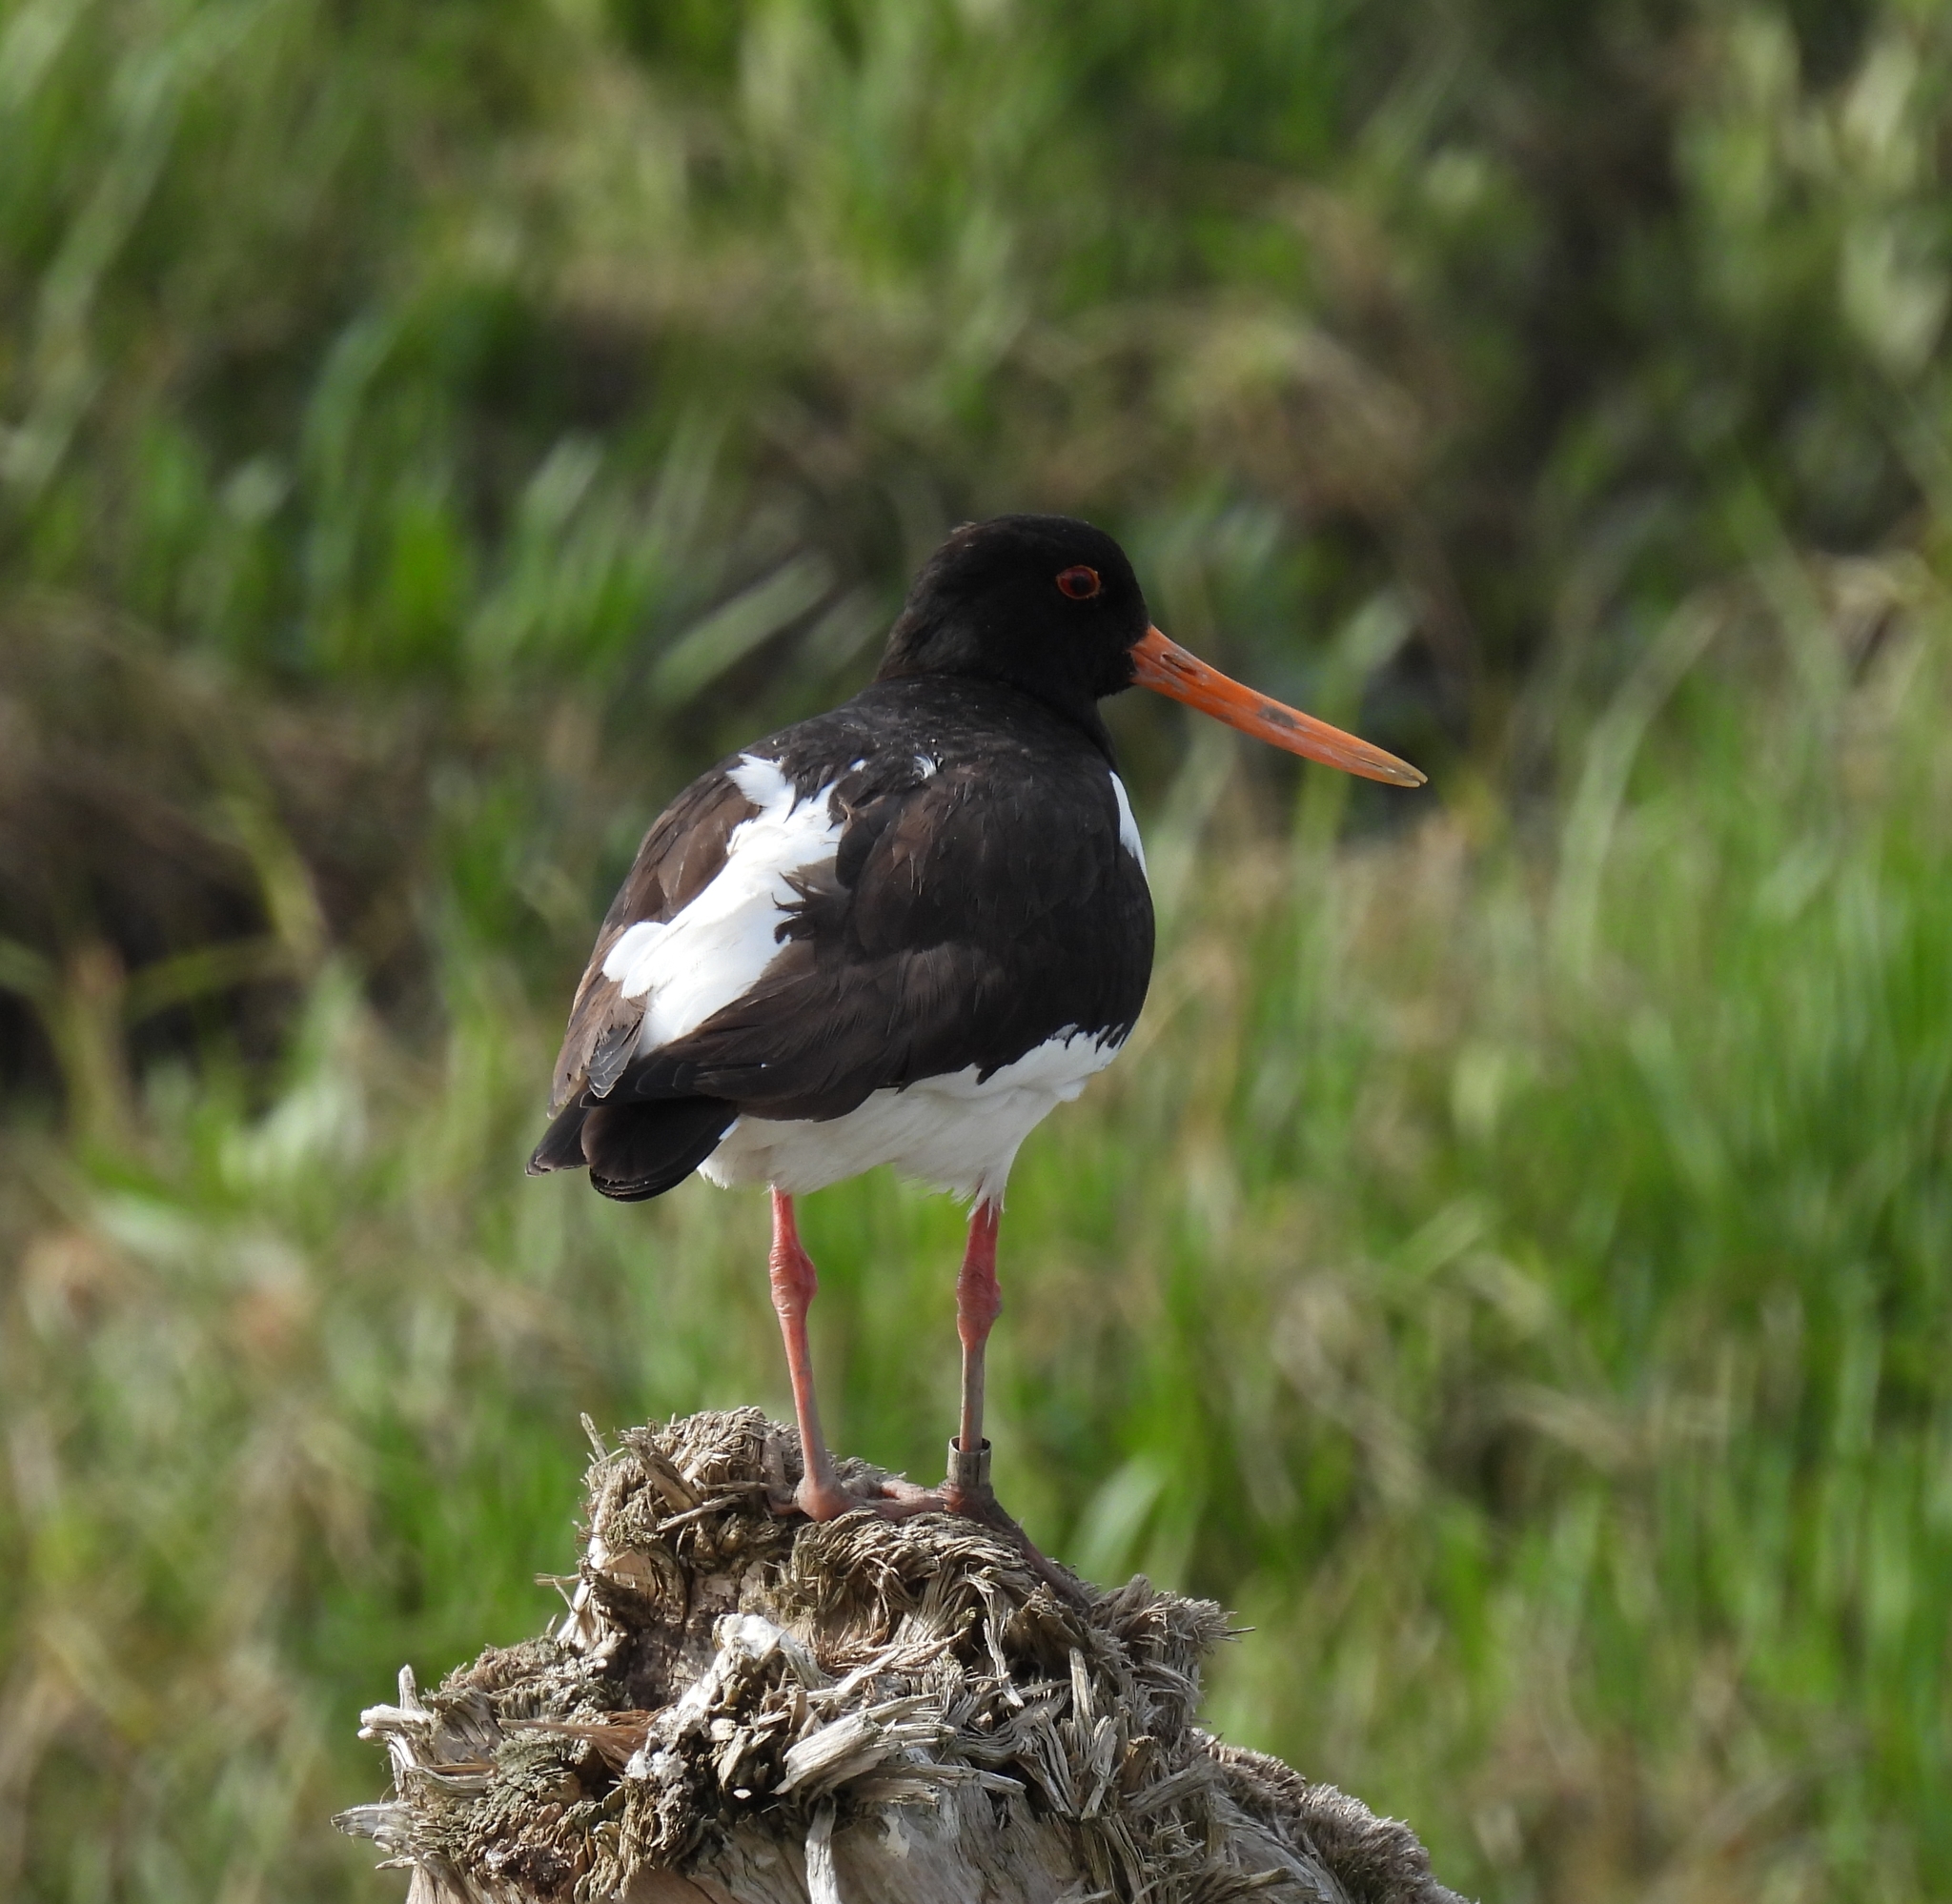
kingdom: Animalia
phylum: Chordata
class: Aves
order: Charadriiformes
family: Haematopodidae
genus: Haematopus
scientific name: Haematopus ostralegus
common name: Eurasian oystercatcher
